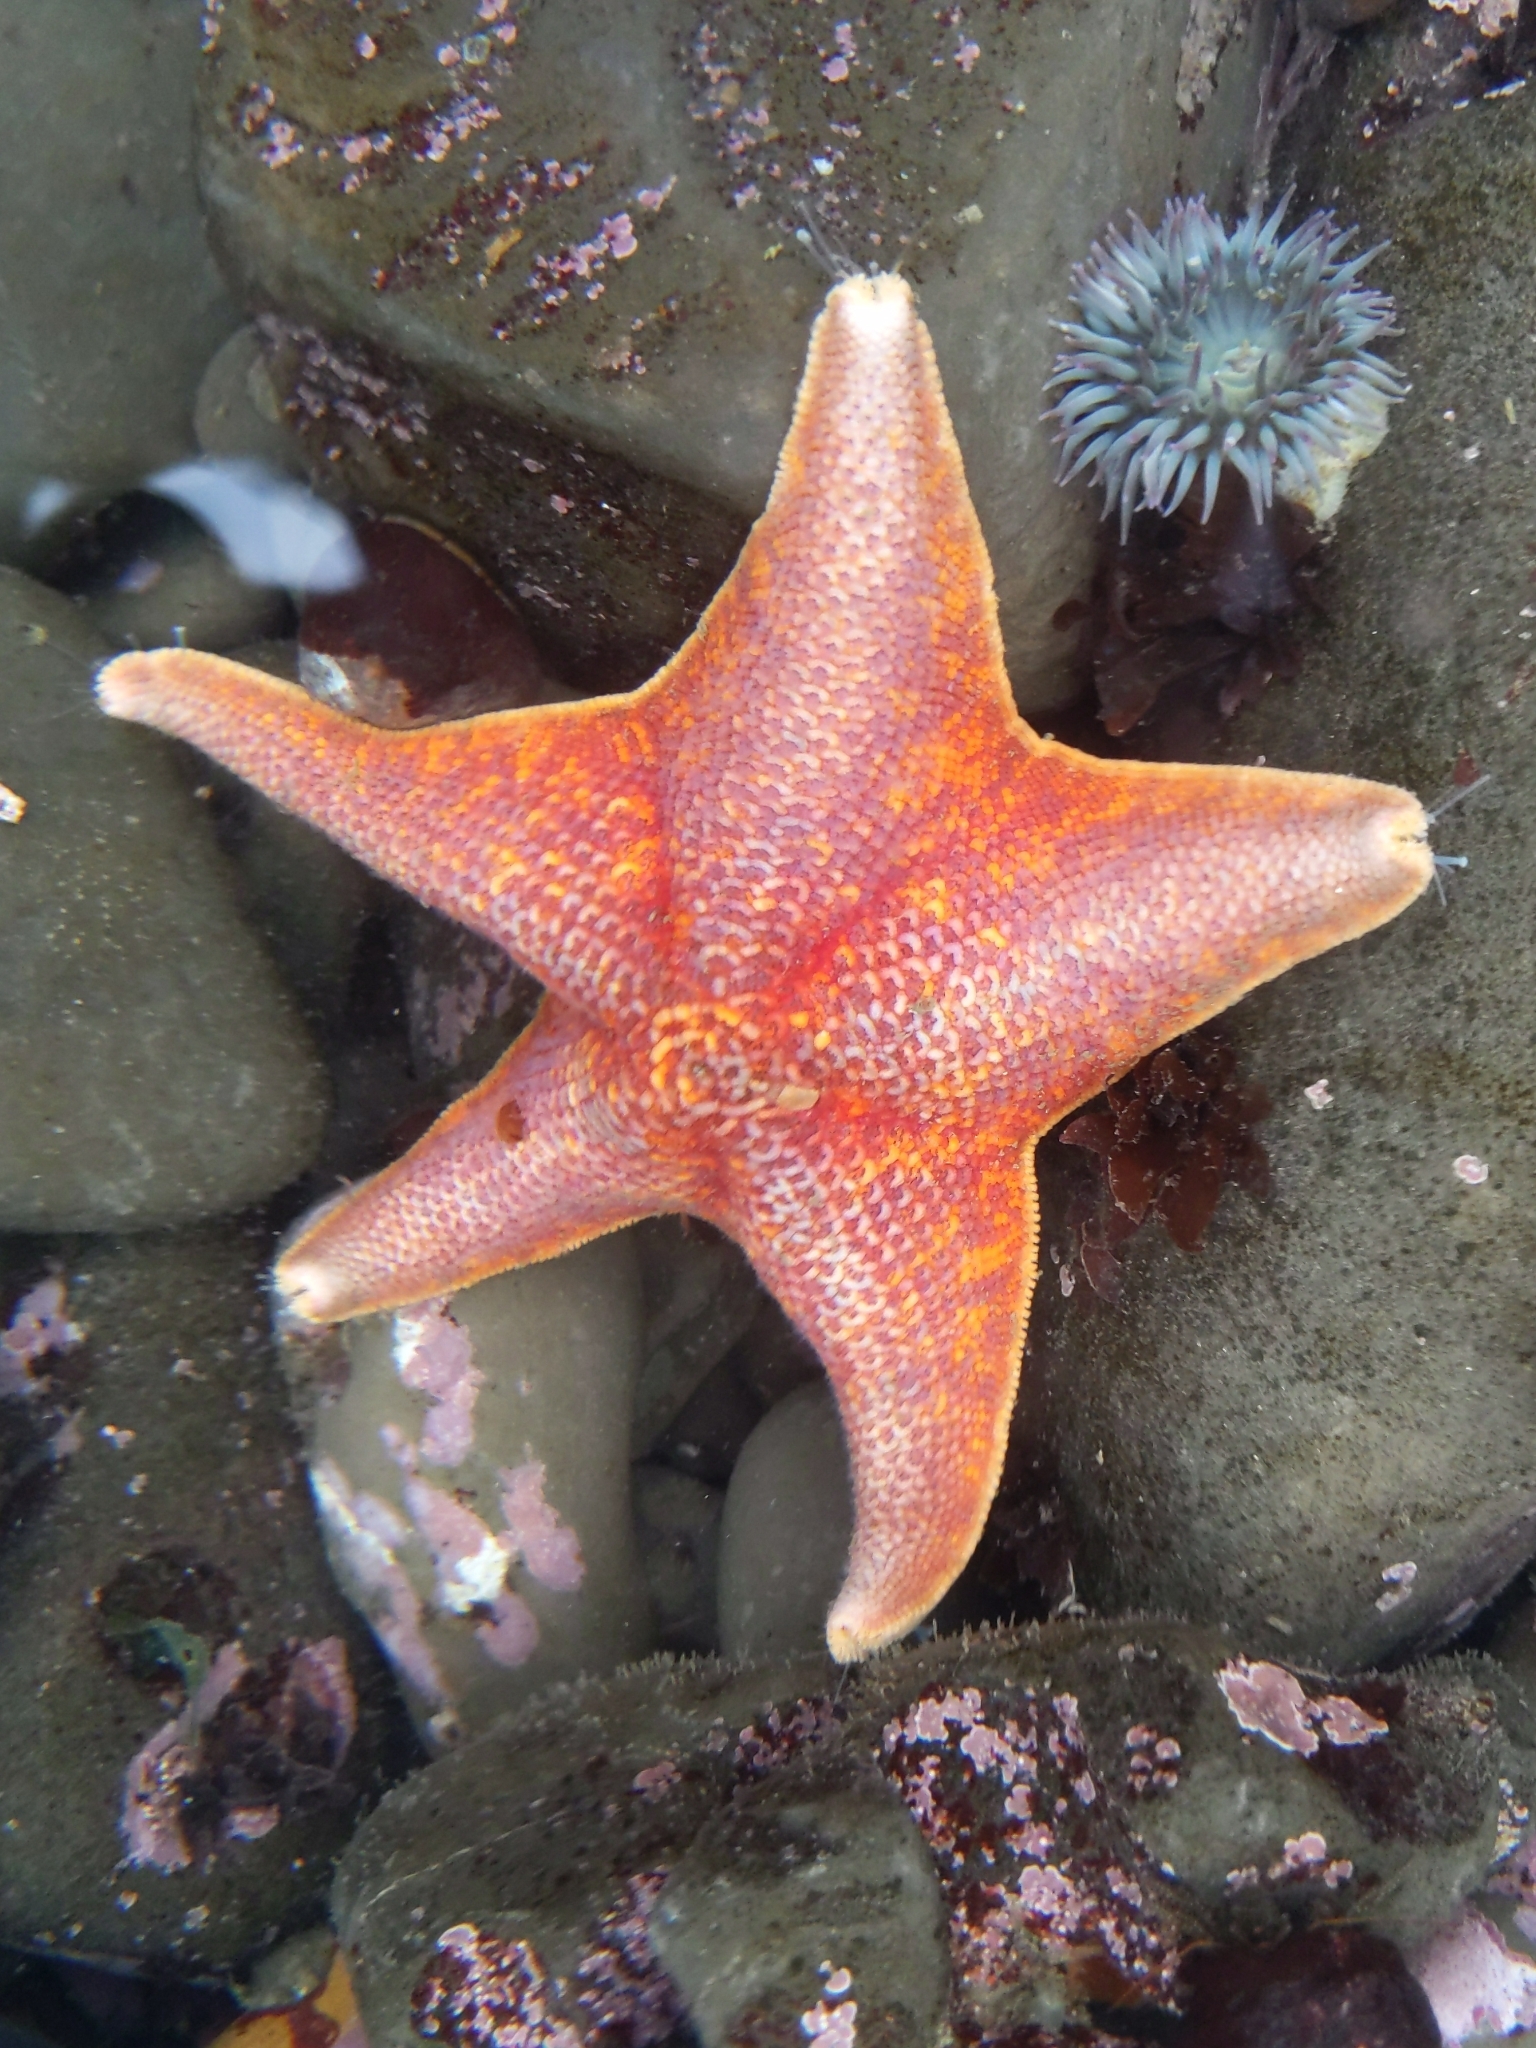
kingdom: Animalia
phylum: Echinodermata
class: Asteroidea
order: Valvatida
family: Asterinidae
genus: Patiria
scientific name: Patiria miniata
